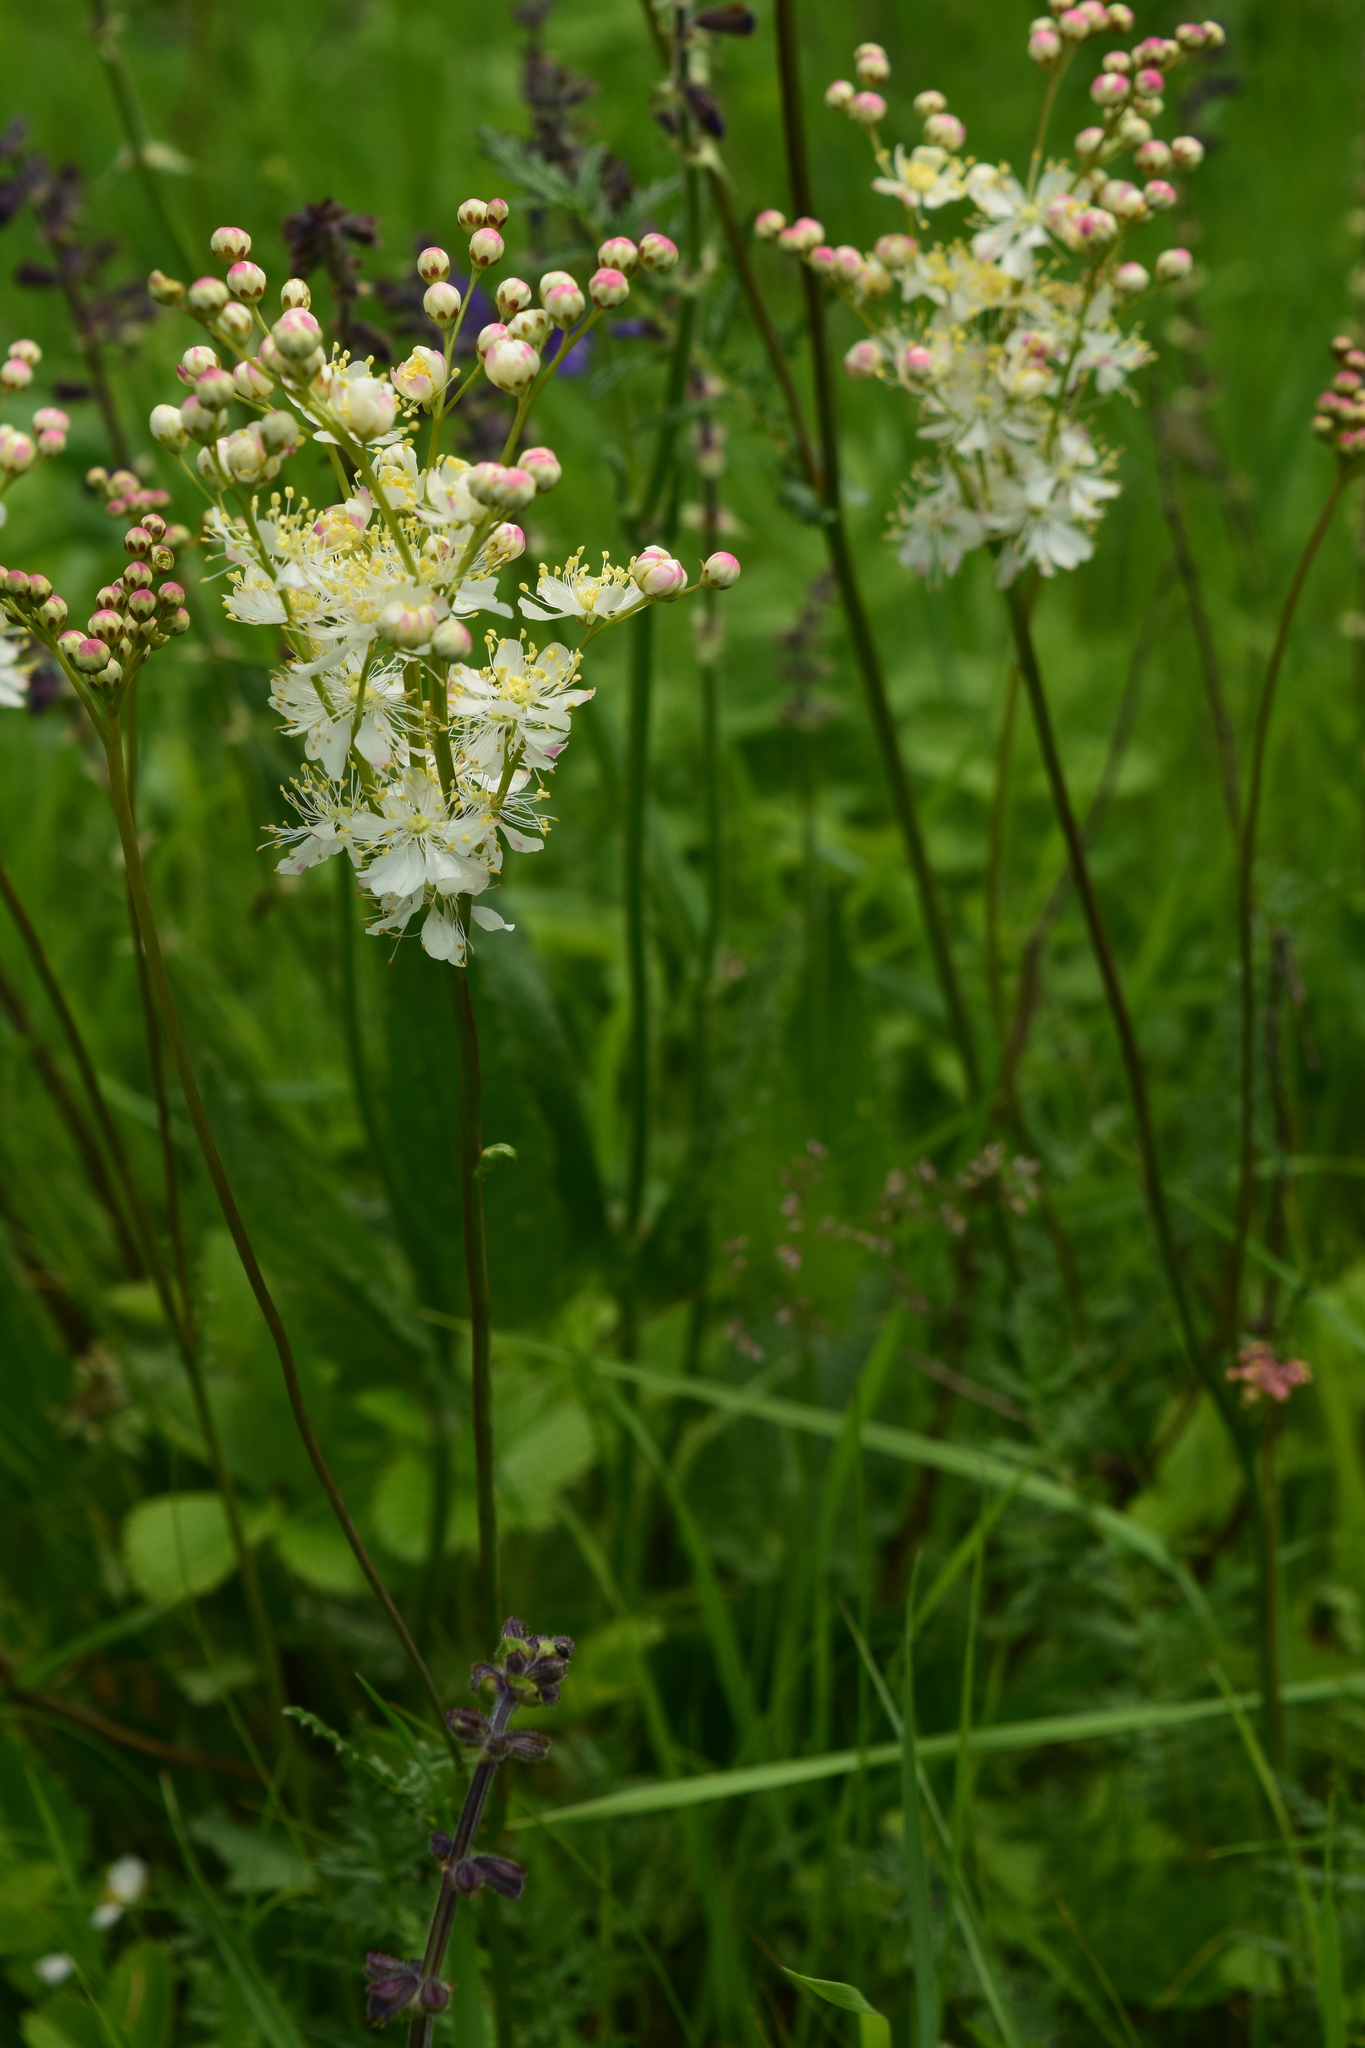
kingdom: Plantae
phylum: Tracheophyta
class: Magnoliopsida
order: Rosales
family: Rosaceae
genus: Filipendula
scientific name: Filipendula vulgaris
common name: Dropwort
